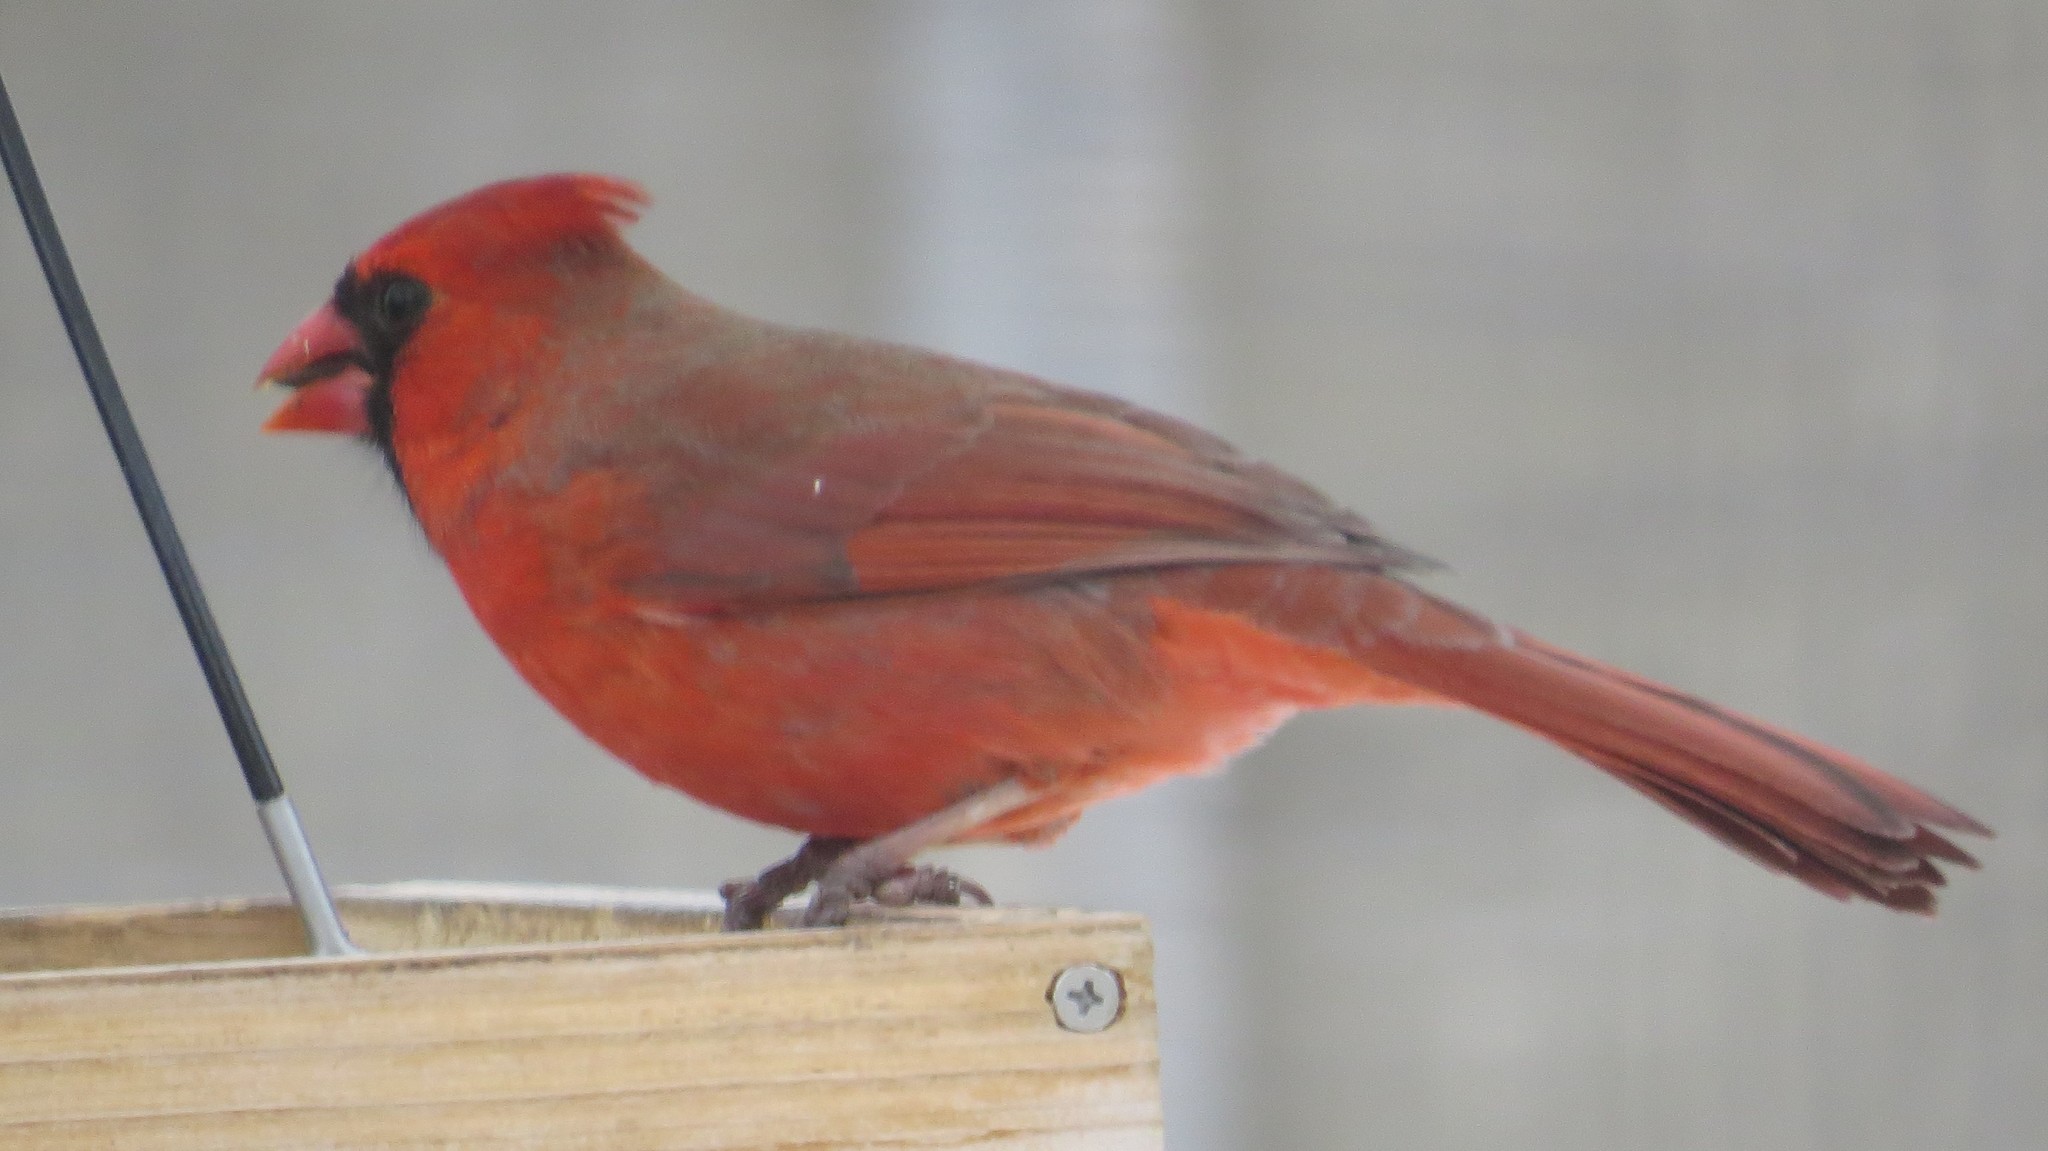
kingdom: Animalia
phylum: Chordata
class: Aves
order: Passeriformes
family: Cardinalidae
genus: Cardinalis
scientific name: Cardinalis cardinalis
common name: Northern cardinal
